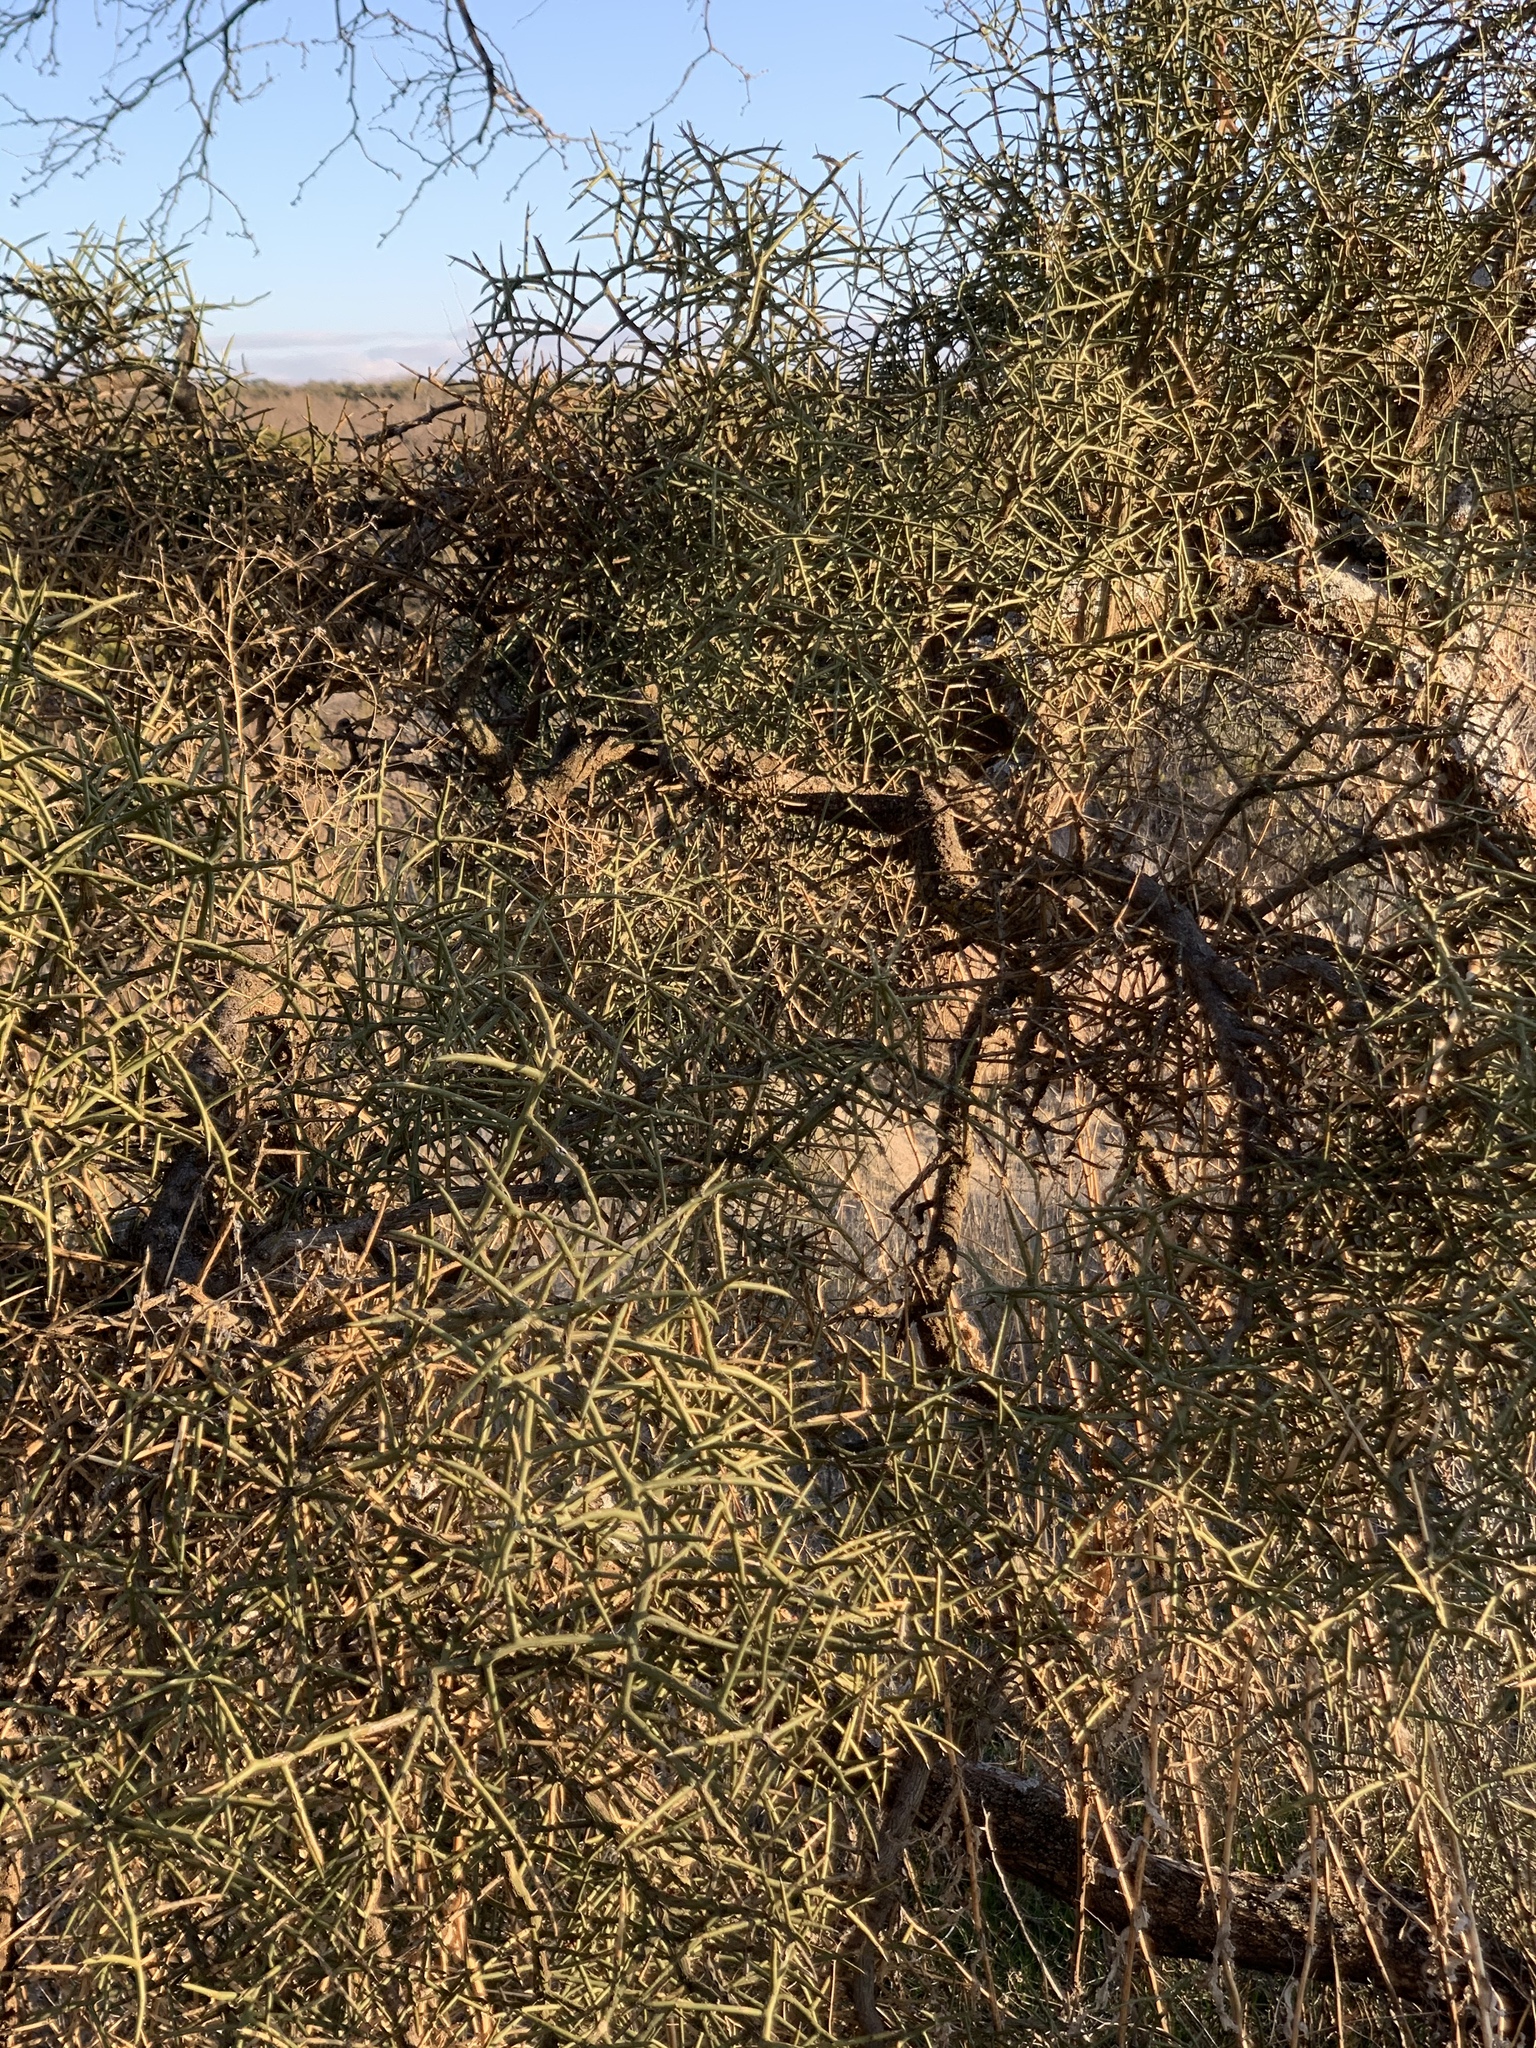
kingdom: Plantae
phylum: Tracheophyta
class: Magnoliopsida
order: Brassicales
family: Koeberliniaceae
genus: Koeberlinia
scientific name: Koeberlinia spinosa
